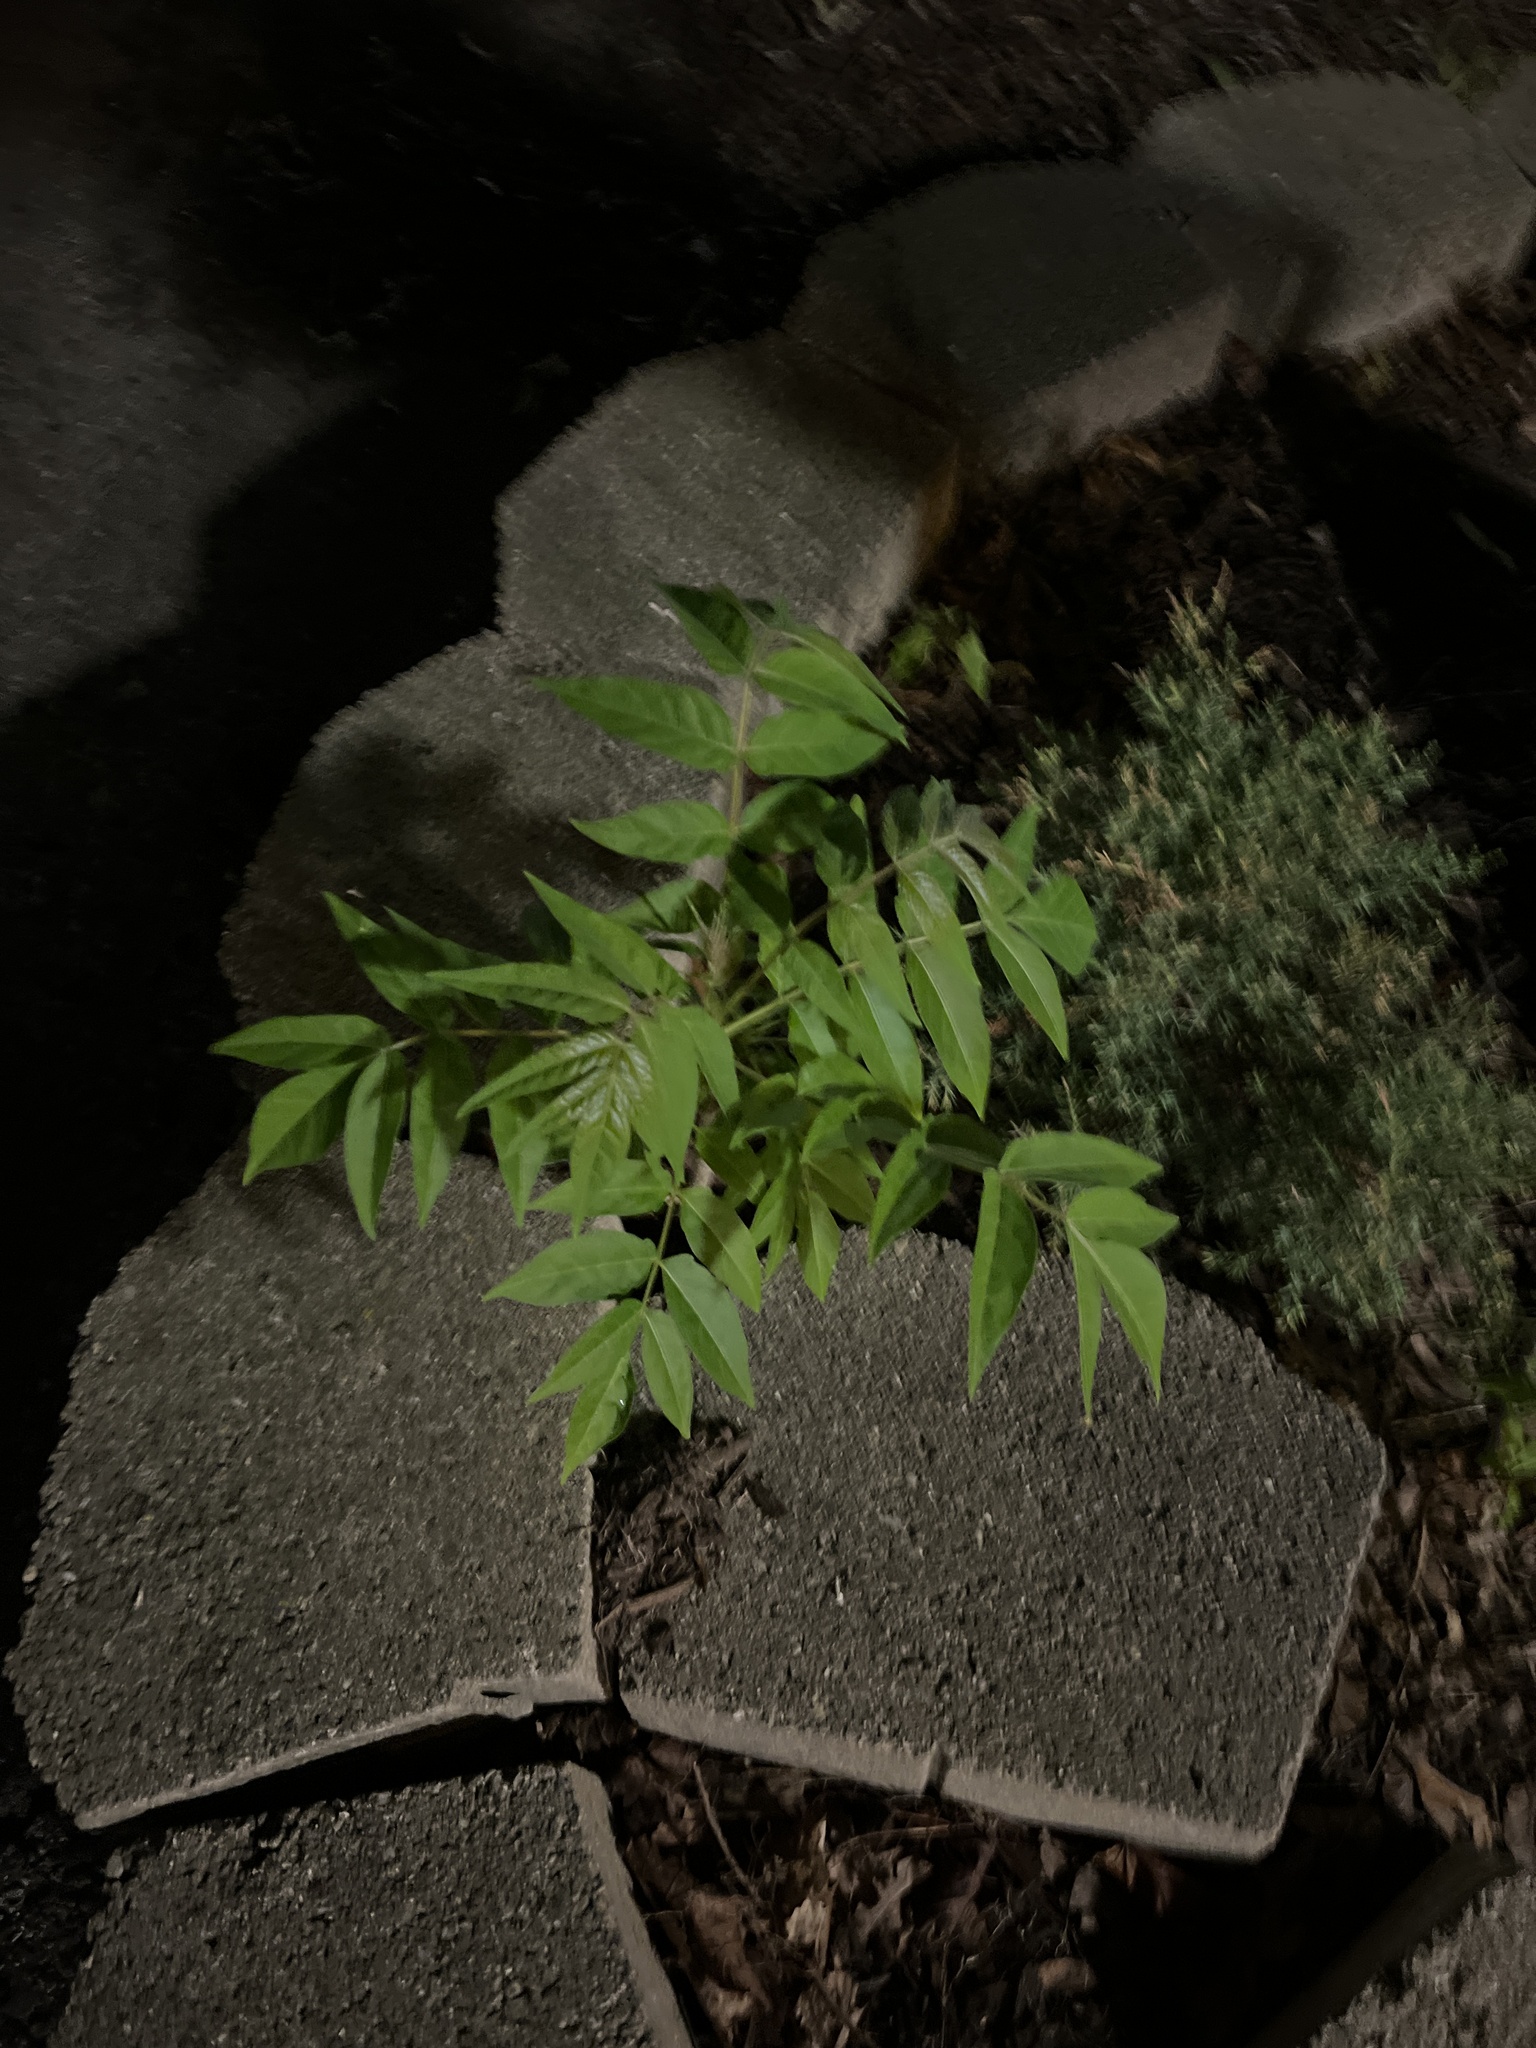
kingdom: Plantae
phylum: Tracheophyta
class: Magnoliopsida
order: Sapindales
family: Simaroubaceae
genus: Ailanthus
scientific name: Ailanthus altissima
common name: Tree-of-heaven
